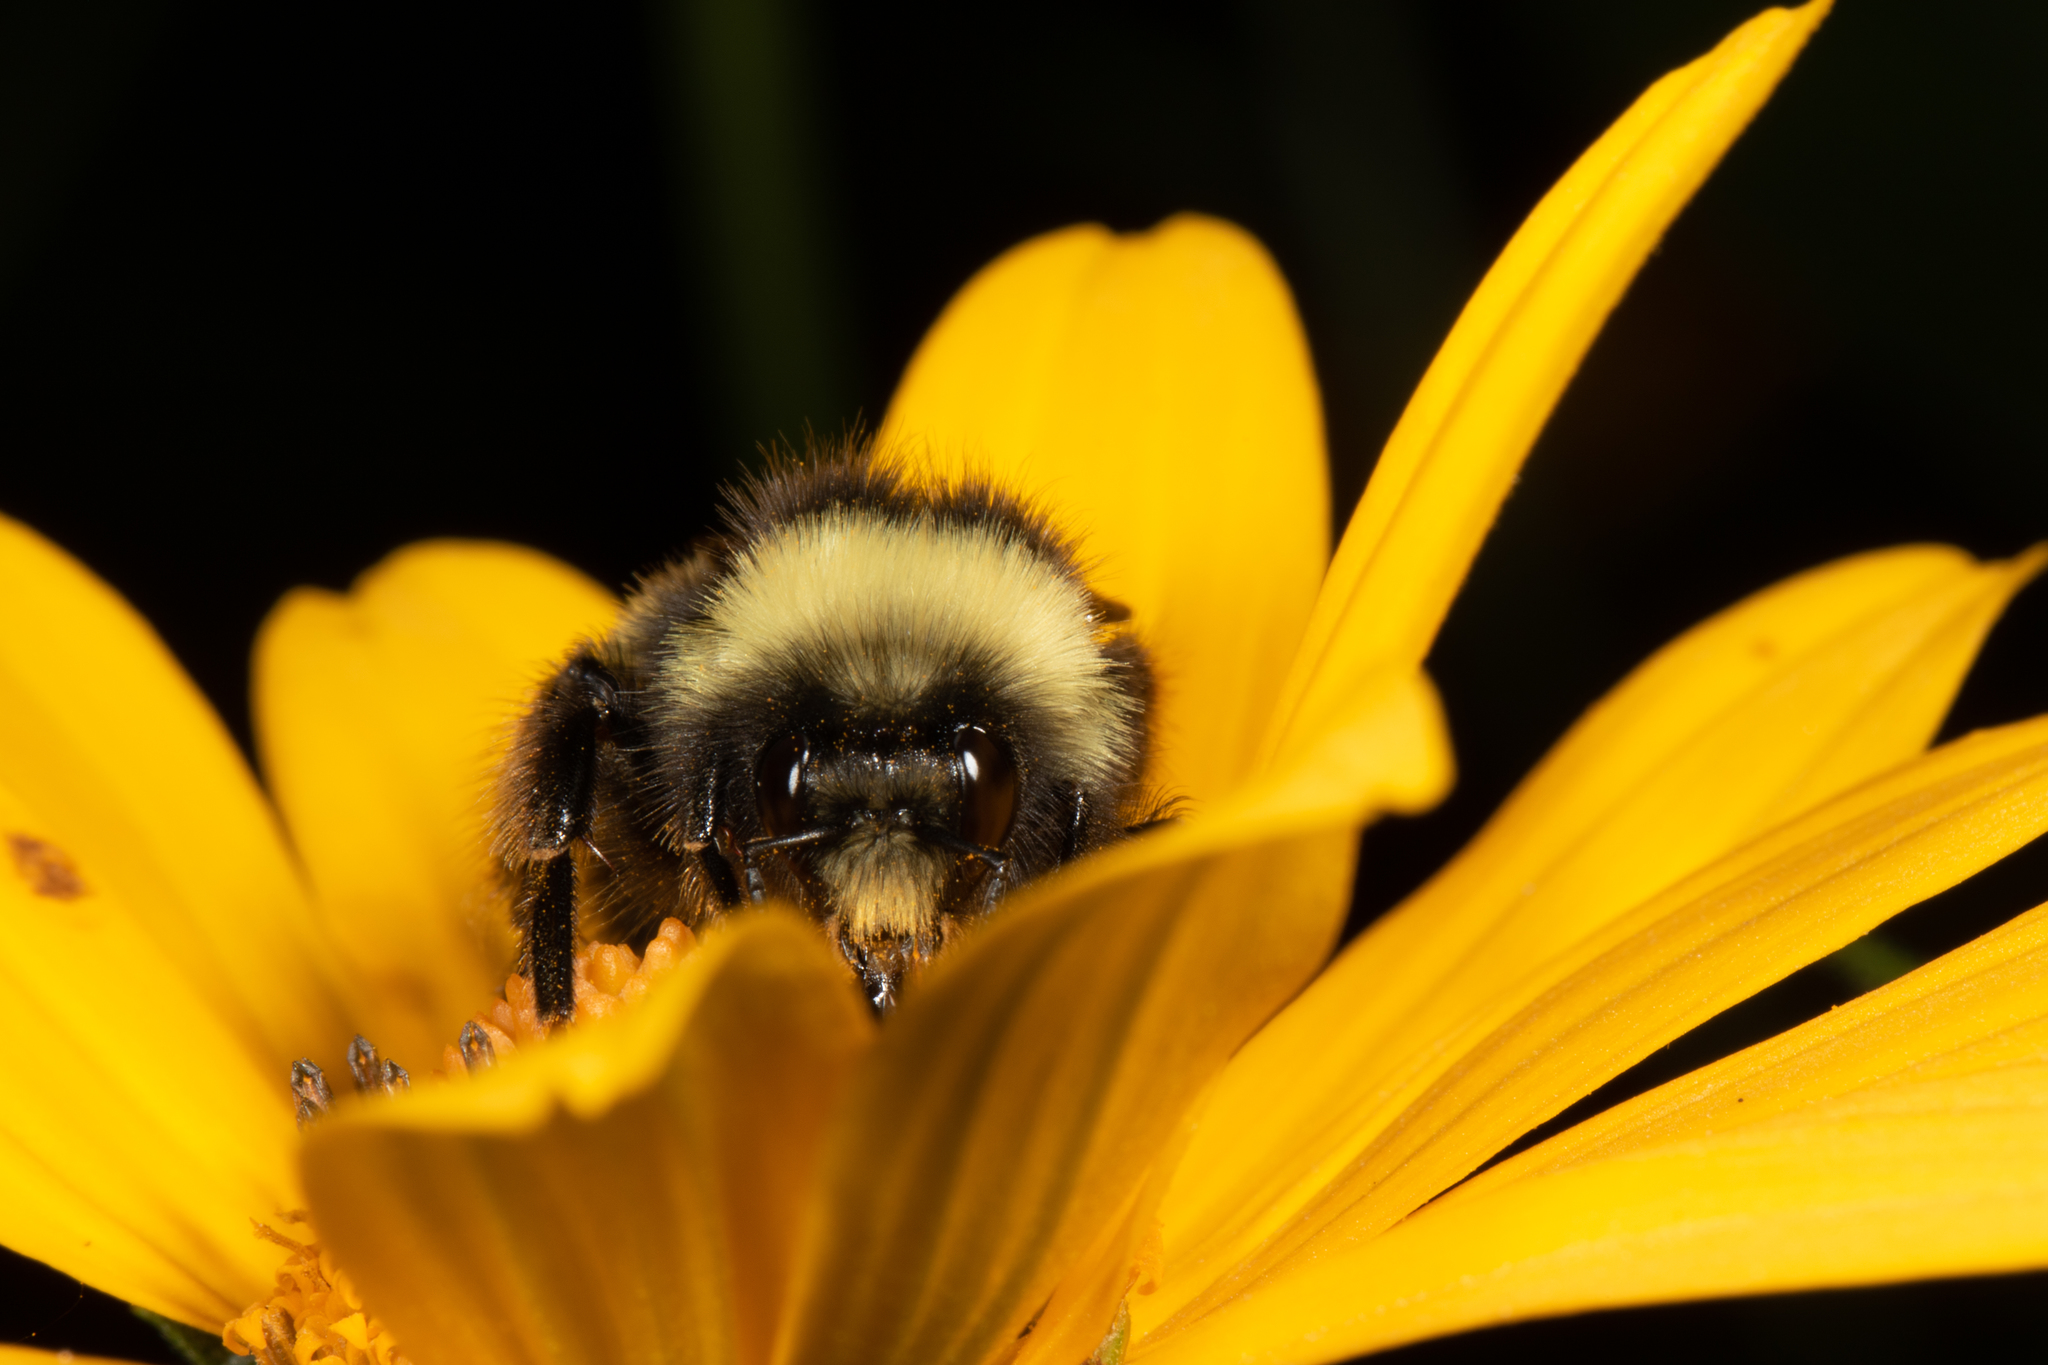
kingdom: Animalia
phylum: Arthropoda
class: Insecta
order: Hymenoptera
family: Apidae
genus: Bombus
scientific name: Bombus terricola
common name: Yellow-banded bumble bee
